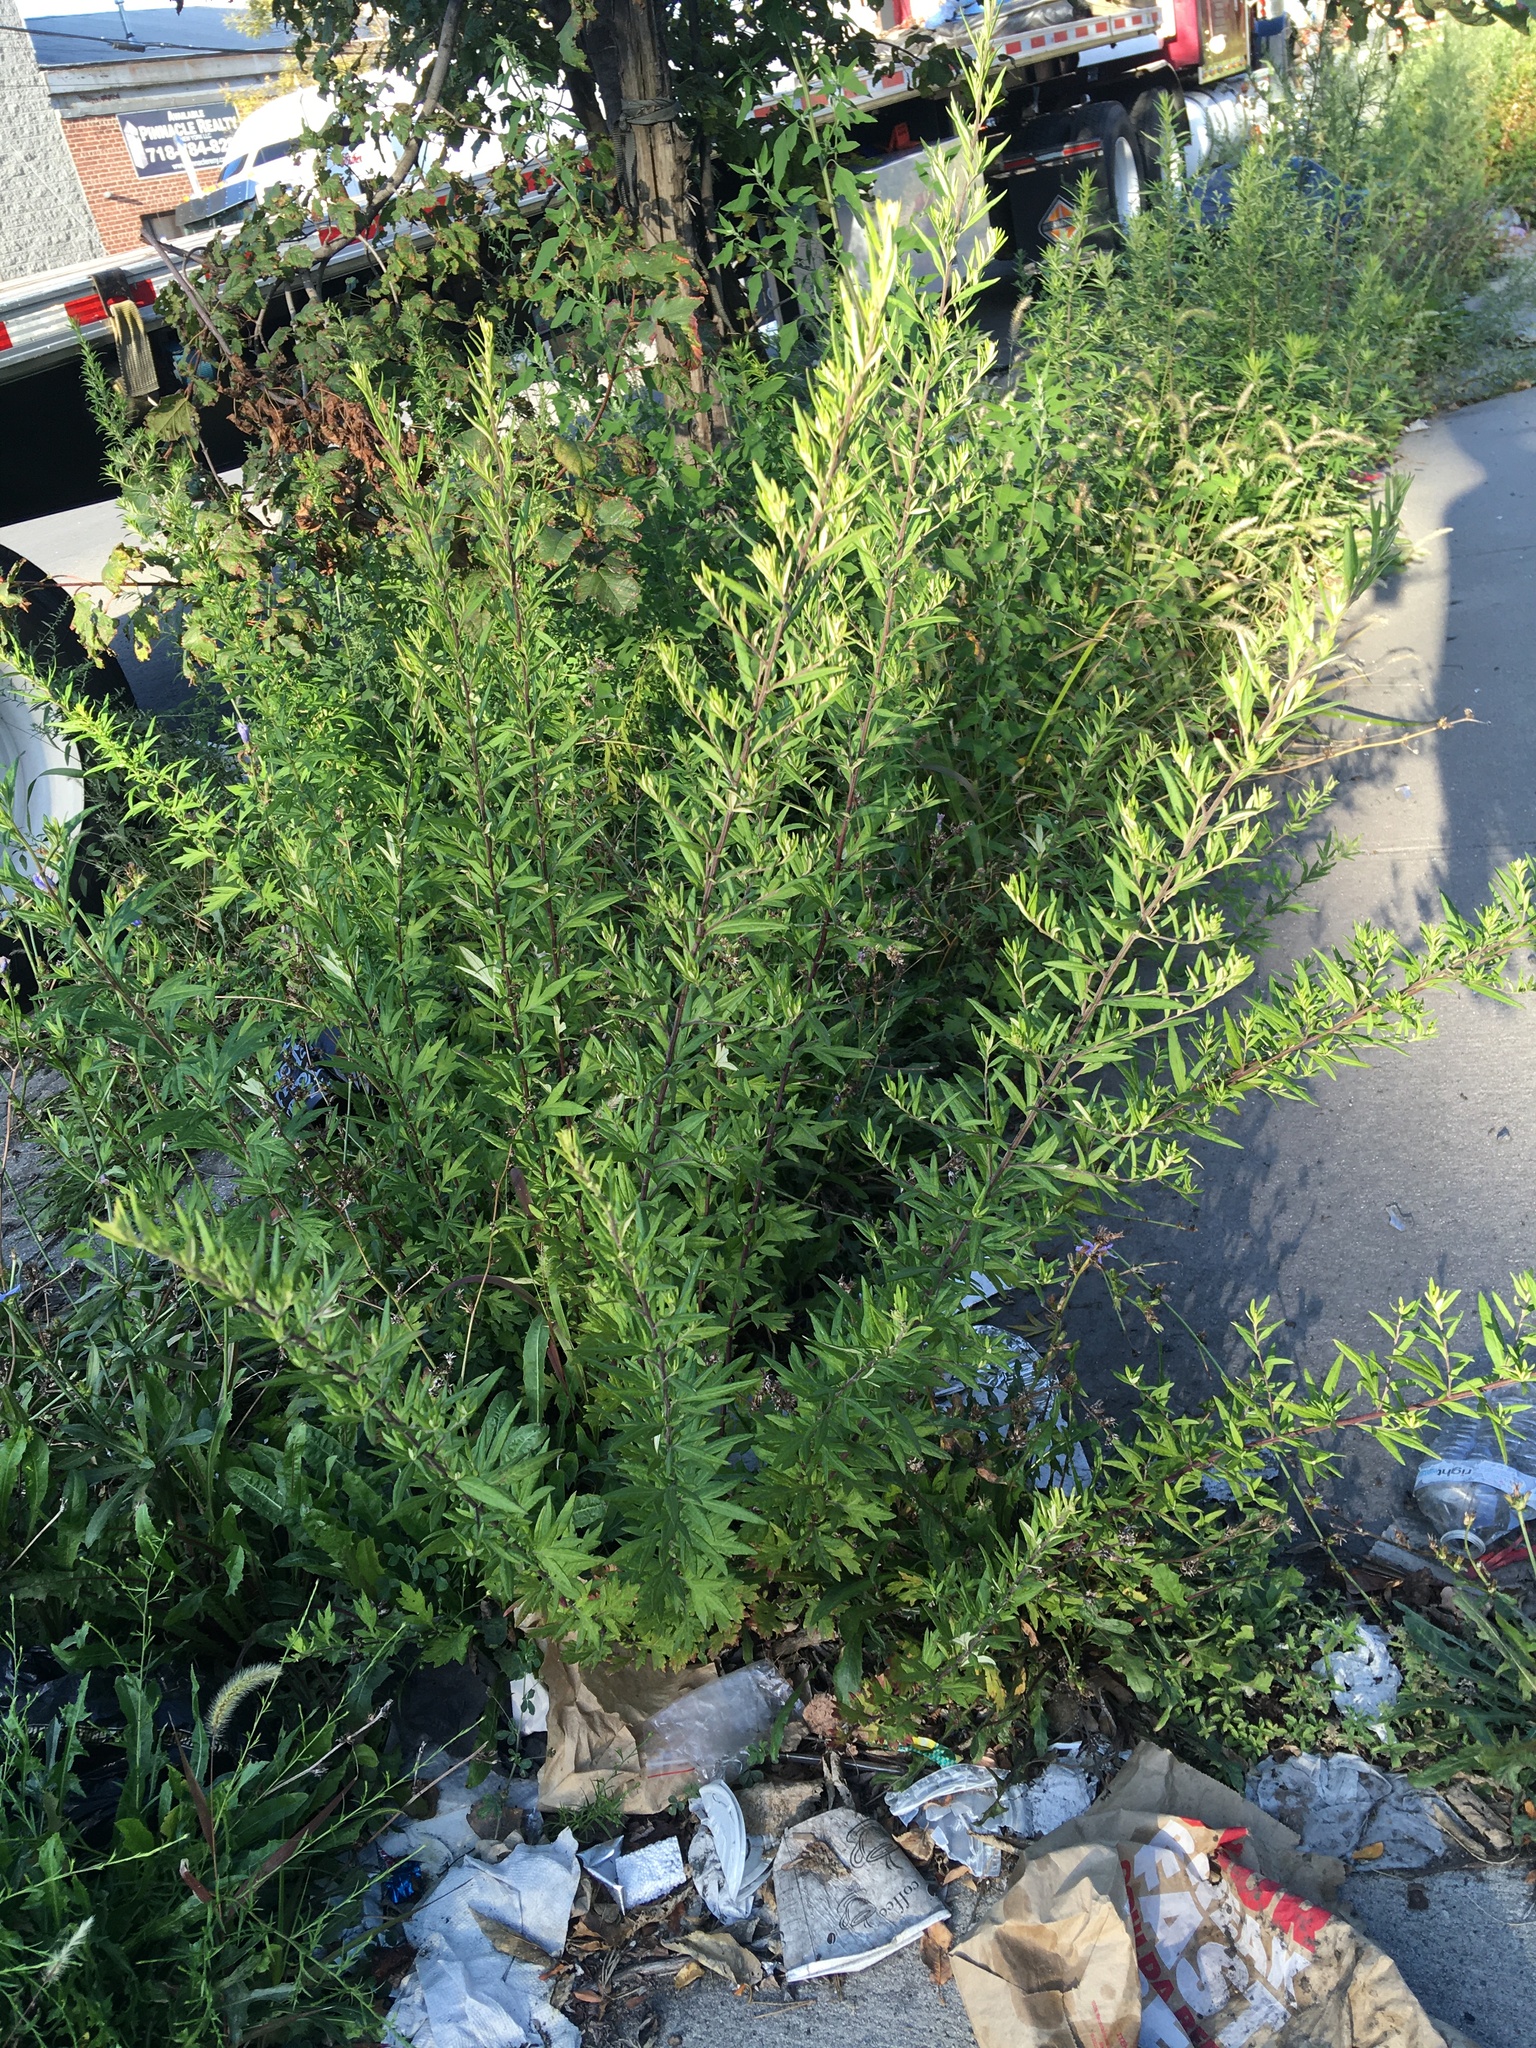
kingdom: Plantae
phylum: Tracheophyta
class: Magnoliopsida
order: Asterales
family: Asteraceae
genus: Artemisia
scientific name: Artemisia vulgaris
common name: Mugwort
